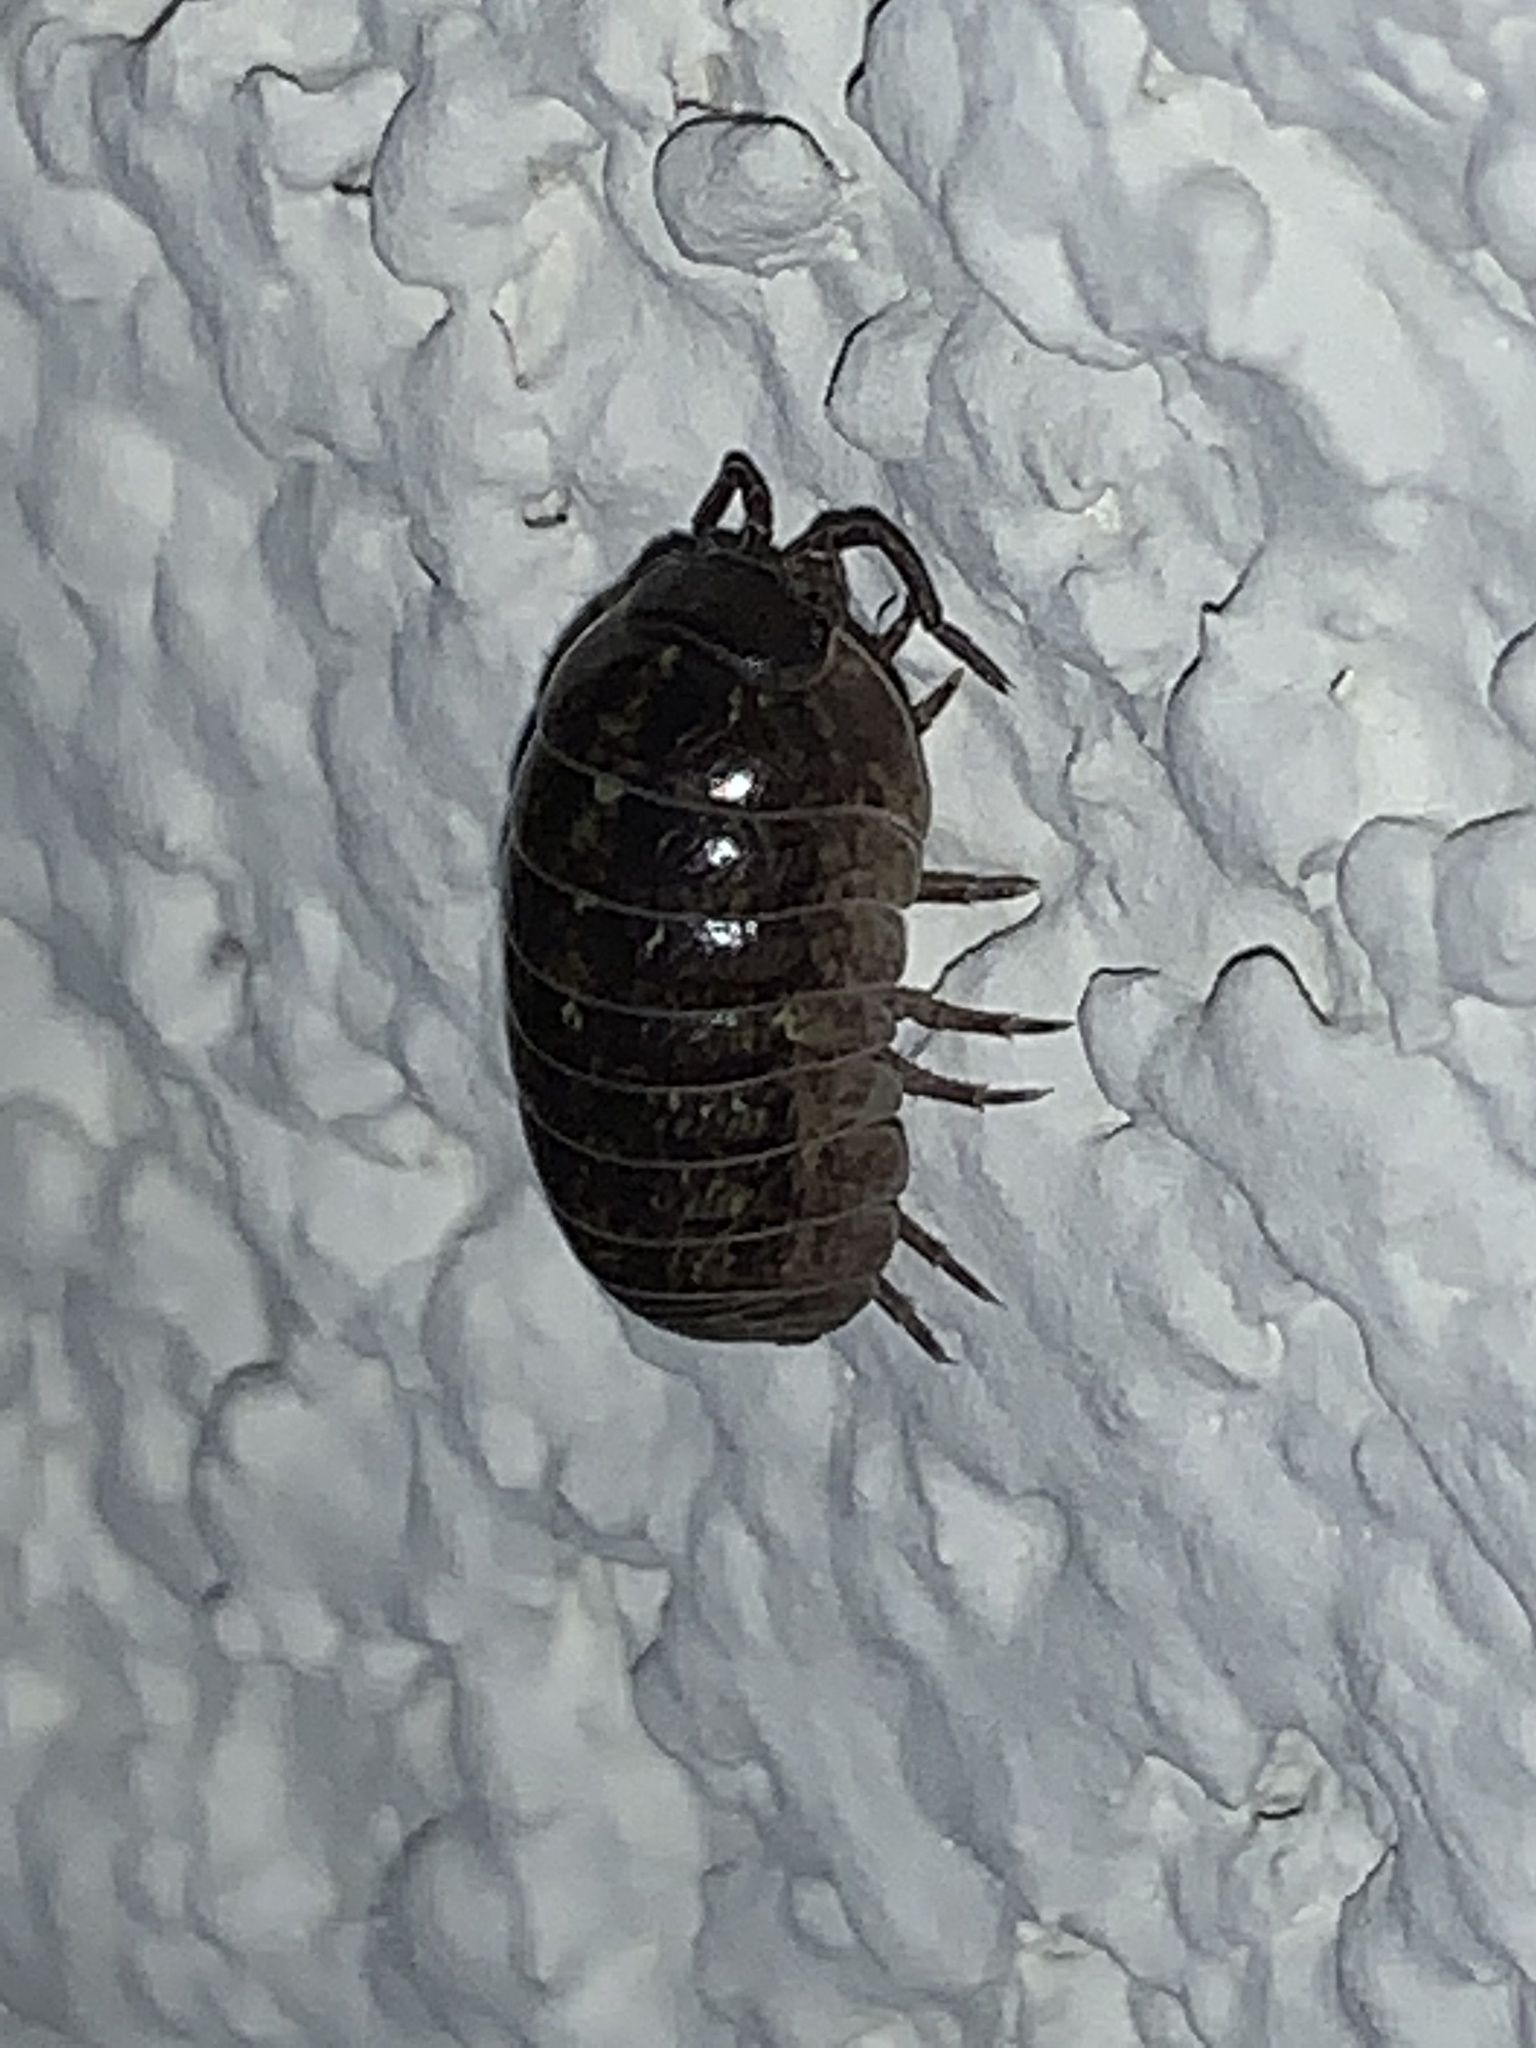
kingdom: Animalia
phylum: Arthropoda
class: Malacostraca
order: Isopoda
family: Armadillidiidae
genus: Armadillidium
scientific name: Armadillidium vulgare
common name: Common pill woodlouse
